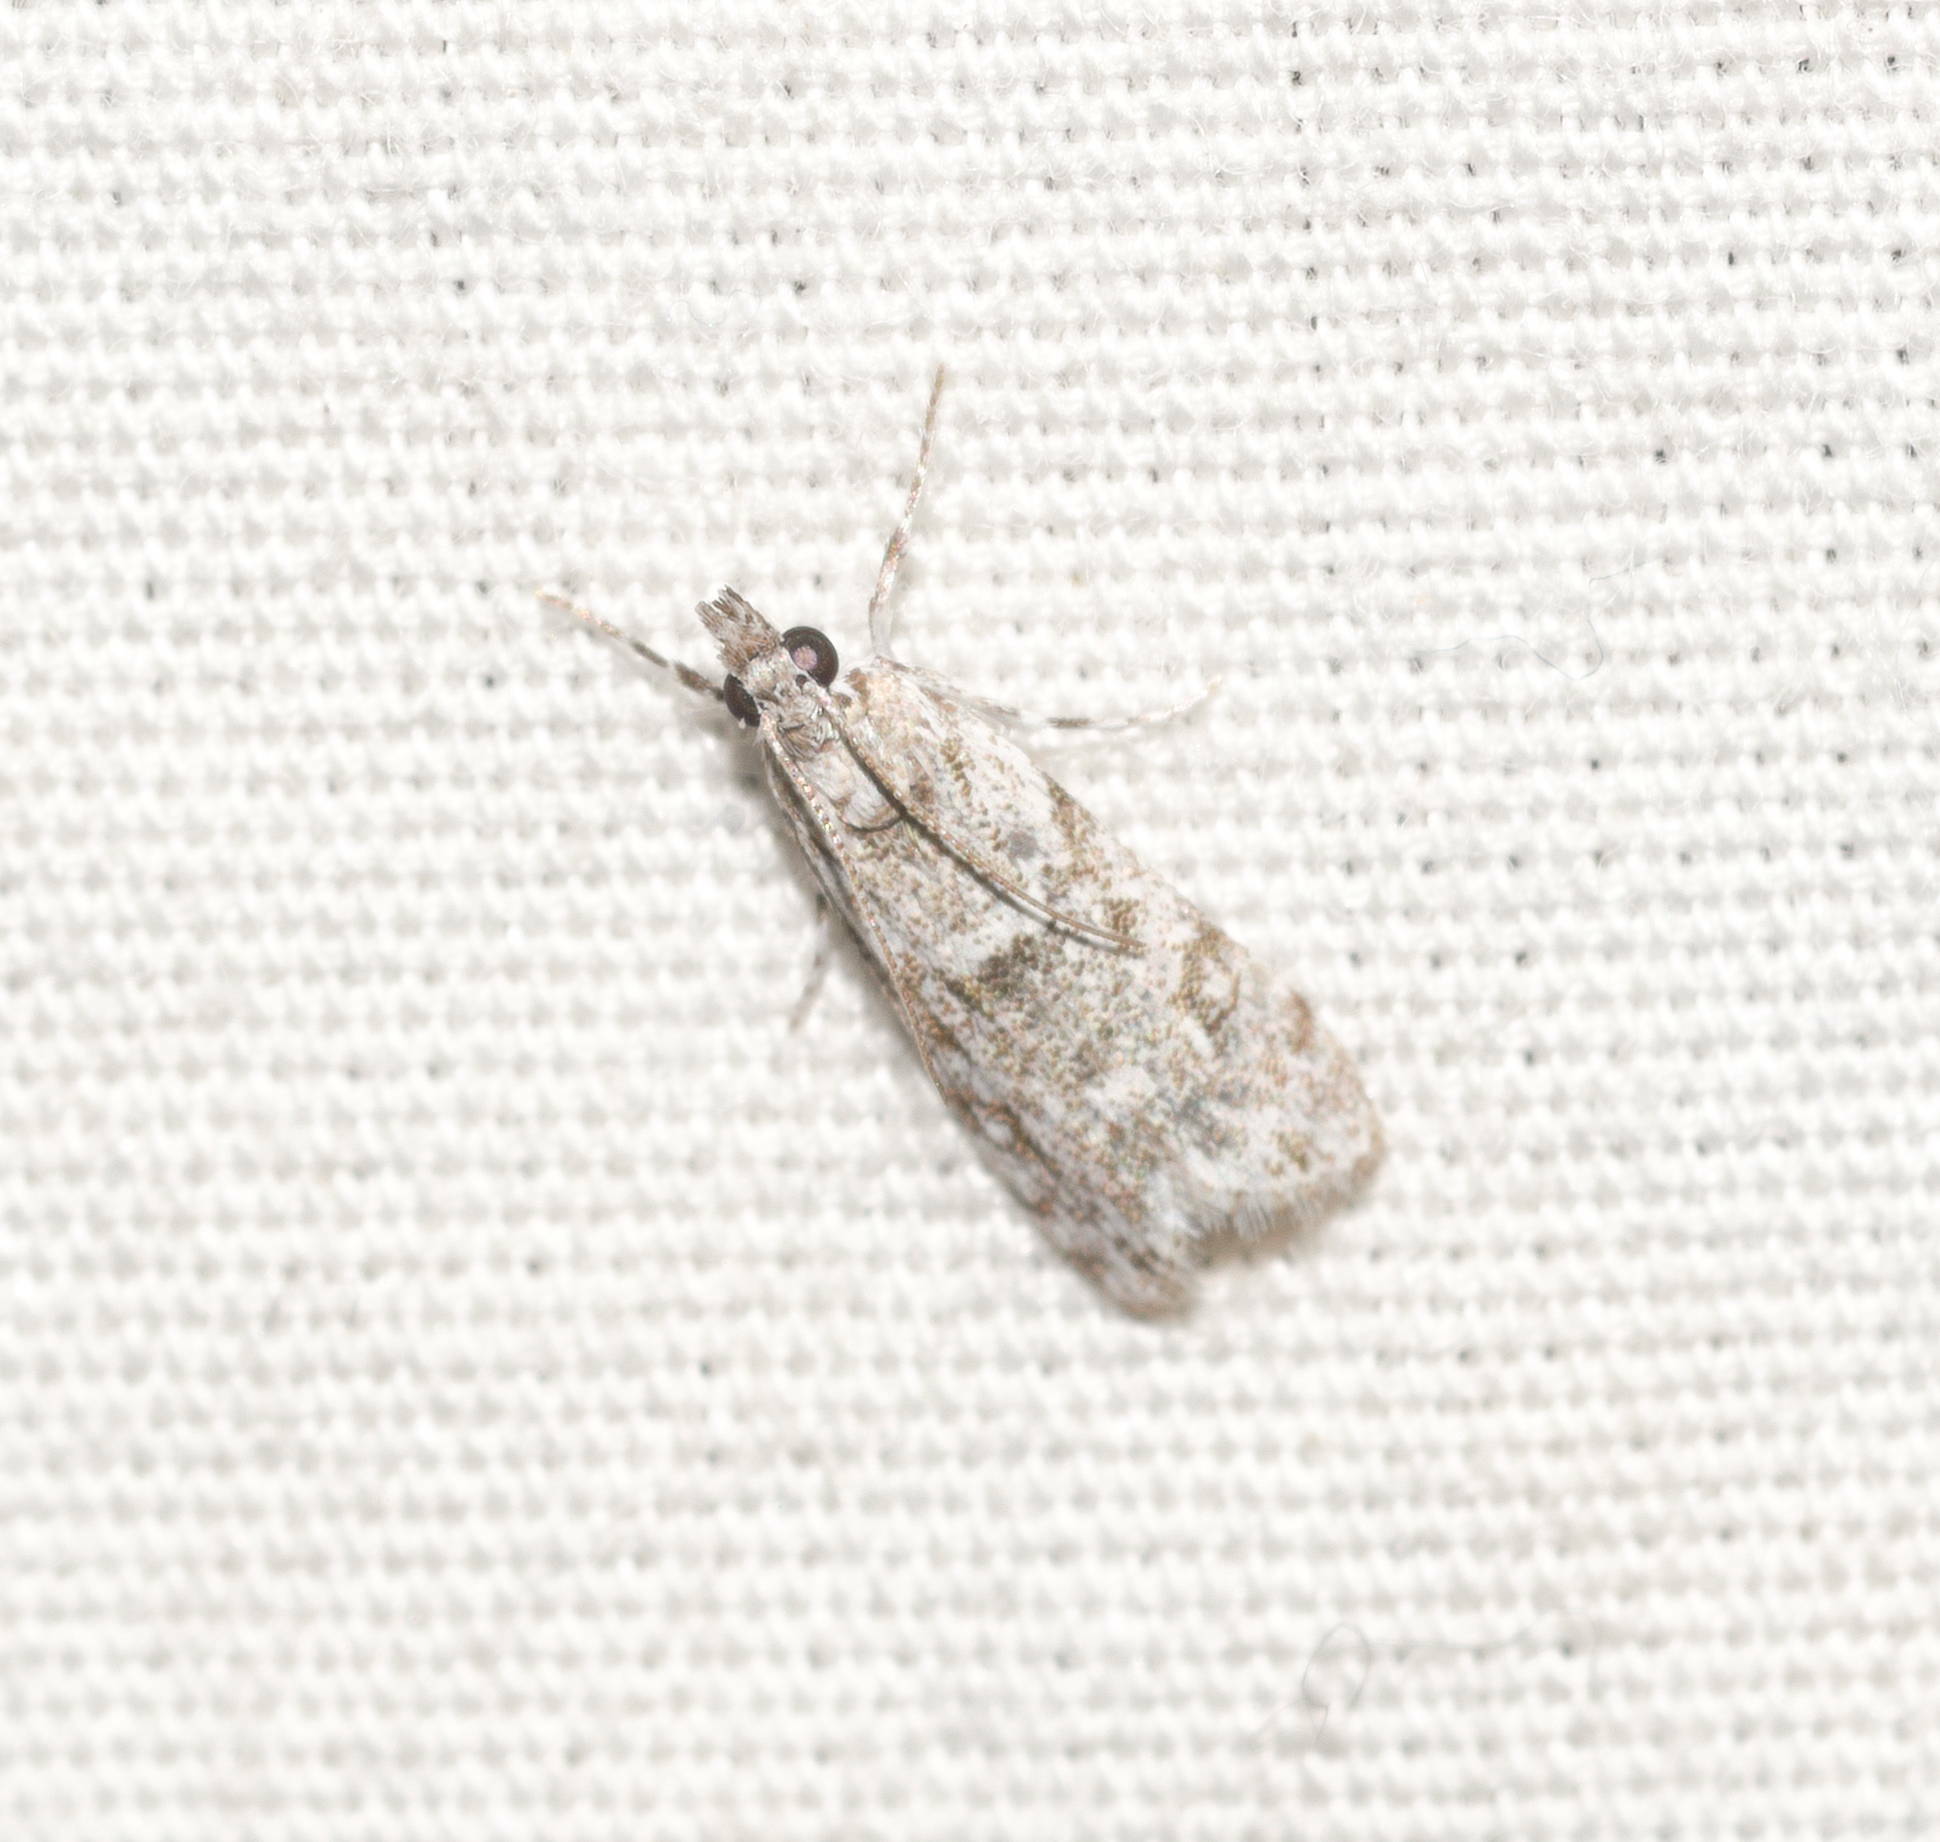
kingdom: Animalia
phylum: Arthropoda
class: Insecta
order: Lepidoptera
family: Crambidae
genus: Eudonia
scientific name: Eudonia geraea
